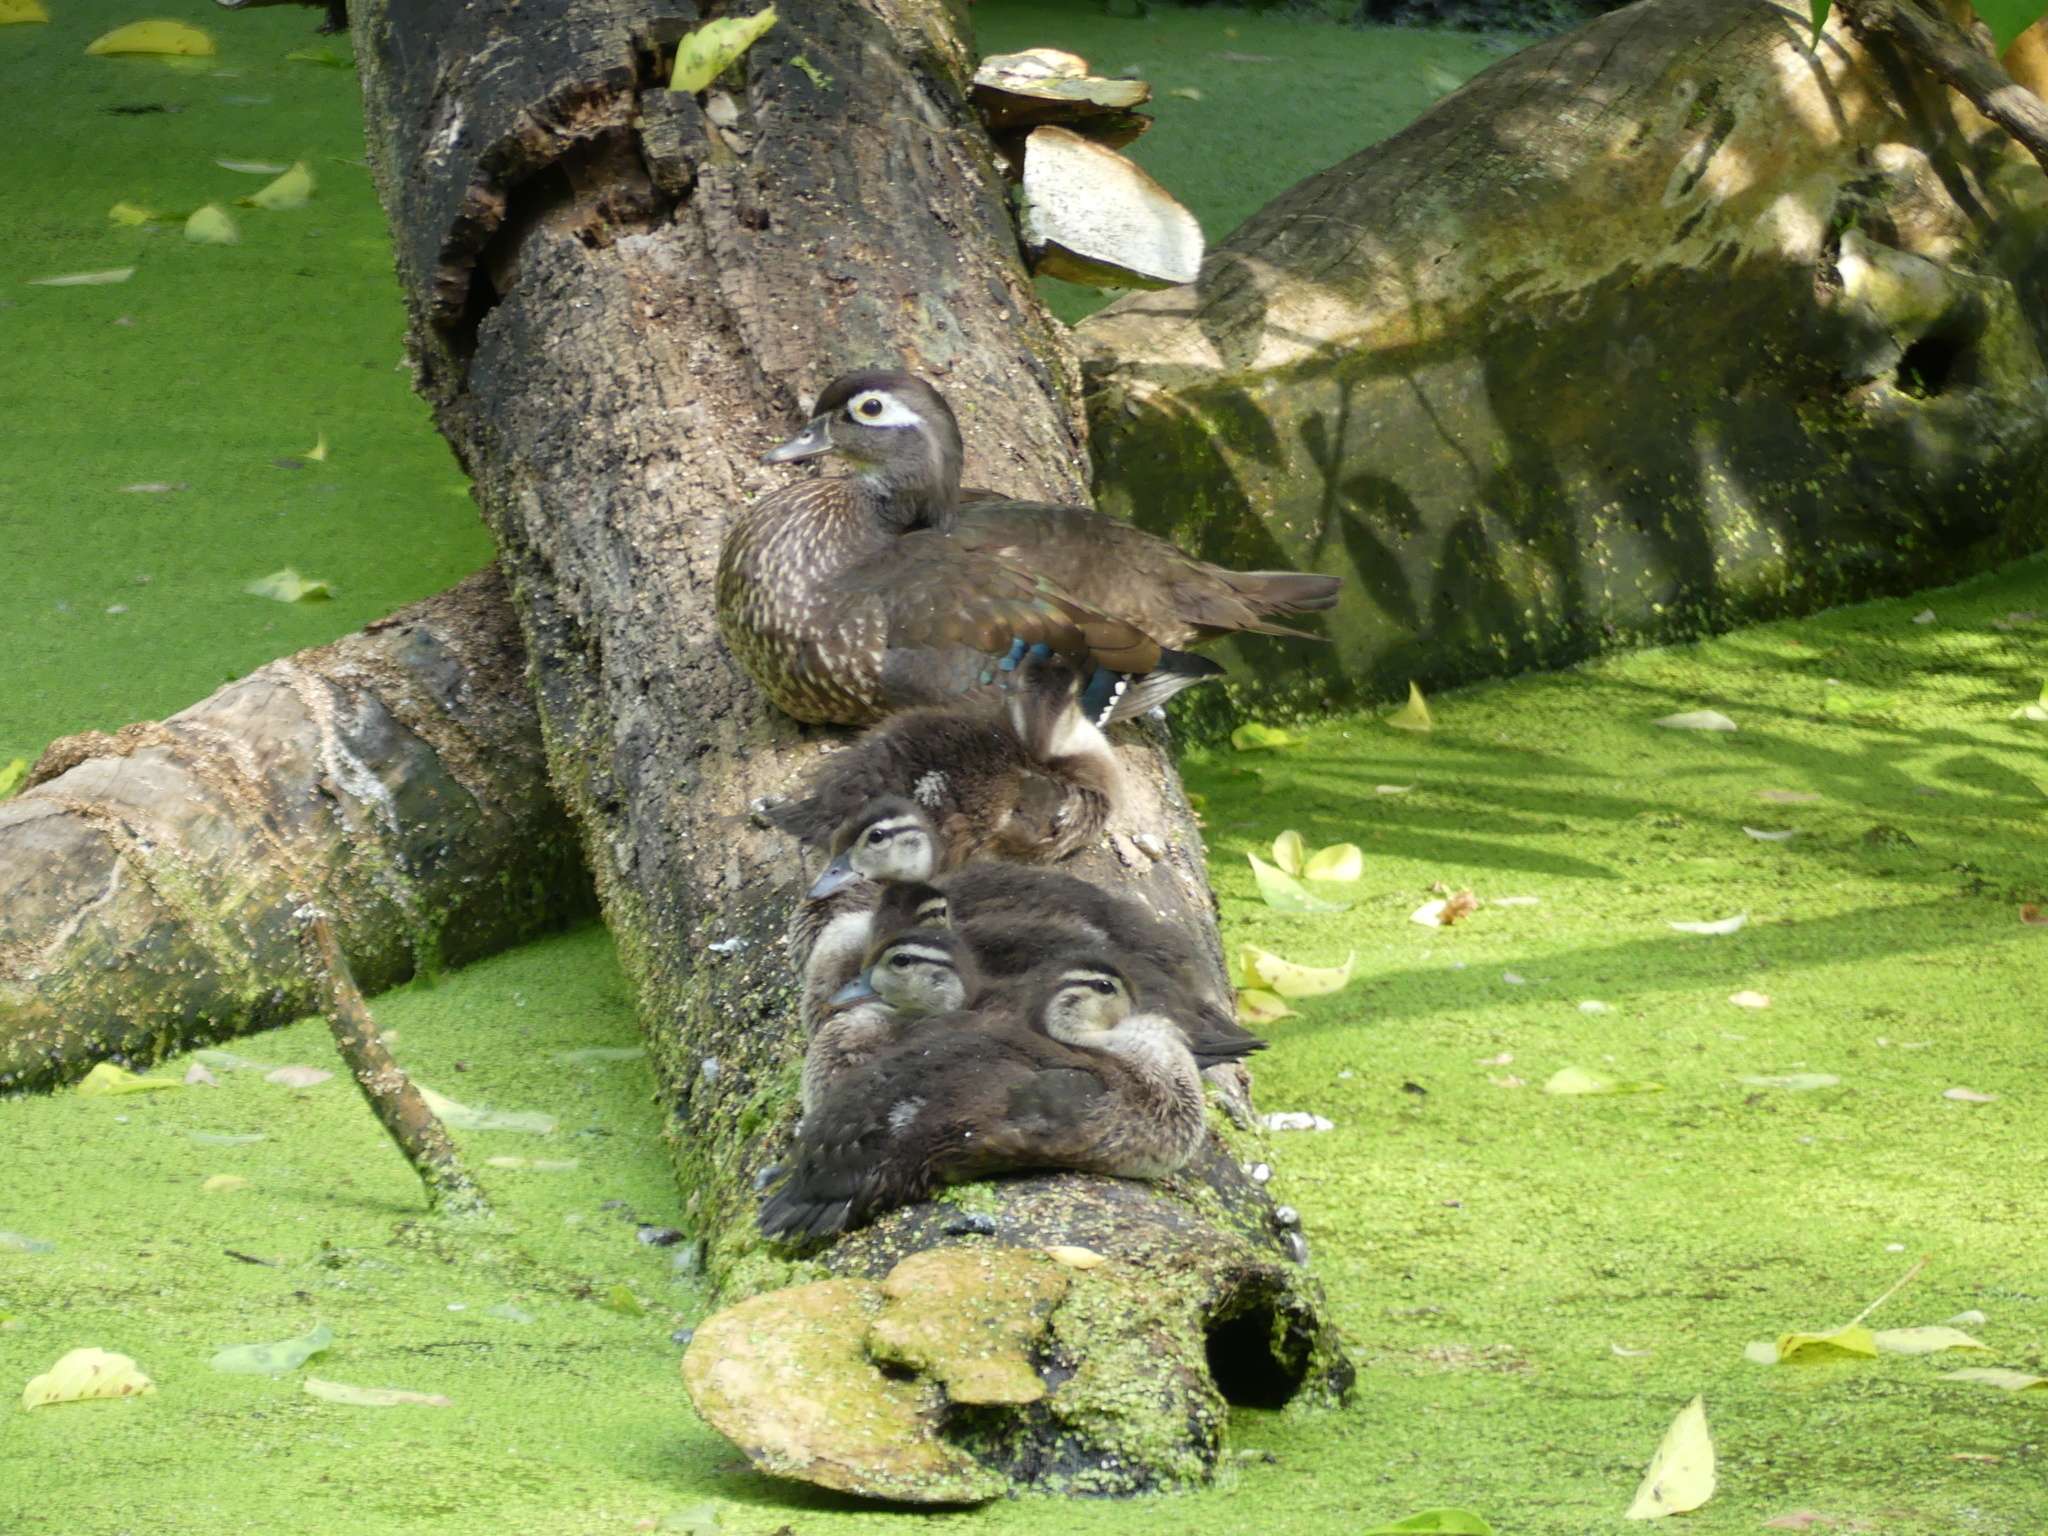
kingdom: Animalia
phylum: Chordata
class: Aves
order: Anseriformes
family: Anatidae
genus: Aix
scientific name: Aix sponsa
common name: Wood duck
